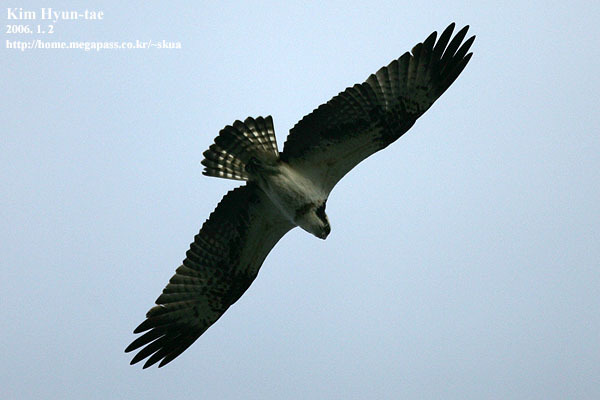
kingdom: Animalia
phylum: Chordata
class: Aves
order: Accipitriformes
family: Pandionidae
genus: Pandion
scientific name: Pandion haliaetus
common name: Osprey
